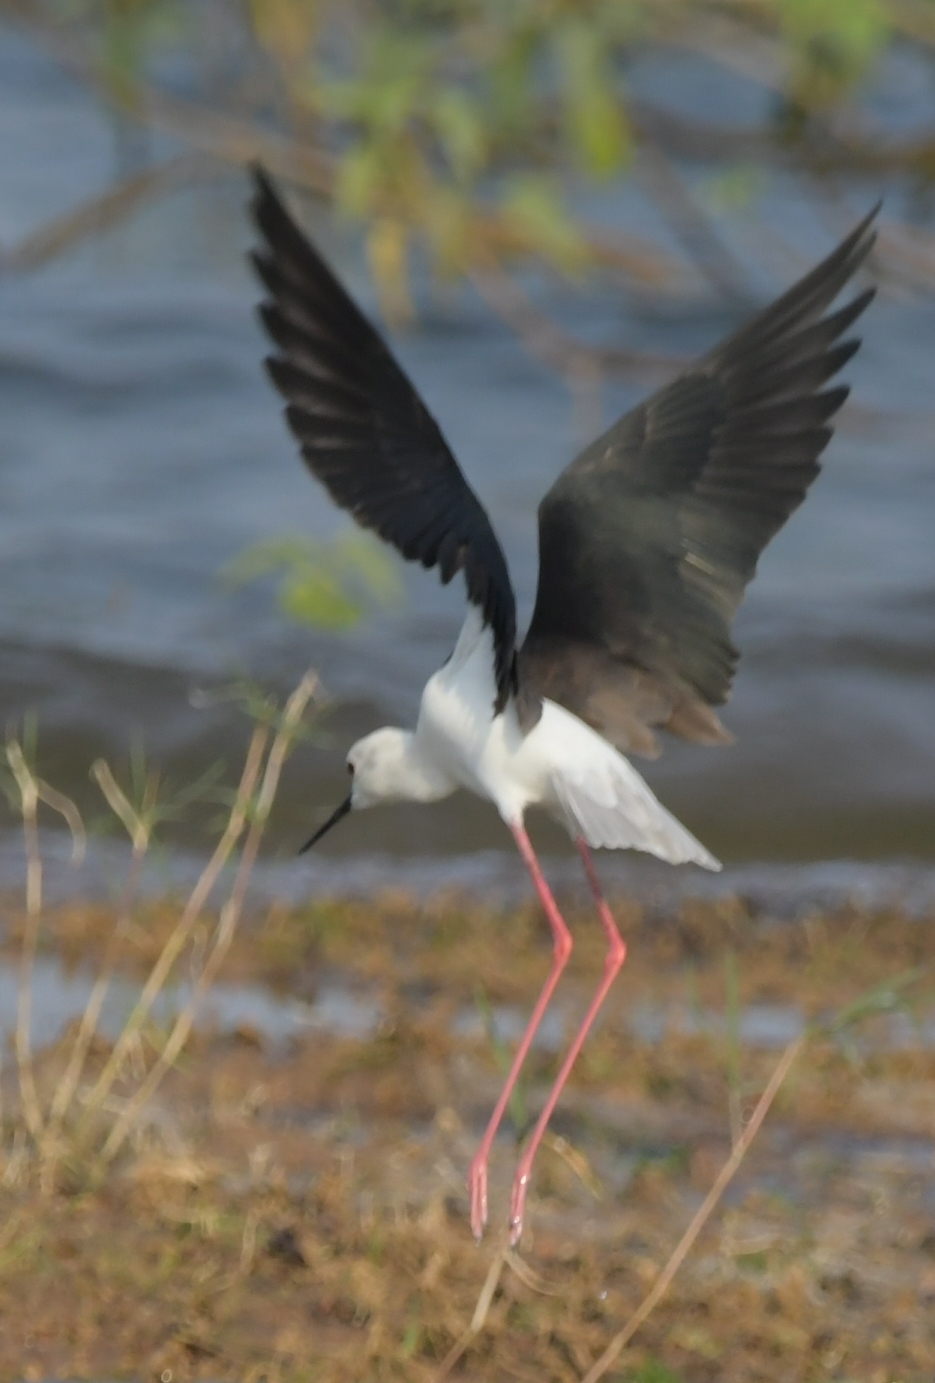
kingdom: Animalia
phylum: Chordata
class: Aves
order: Charadriiformes
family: Recurvirostridae
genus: Himantopus
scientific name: Himantopus himantopus
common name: Black-winged stilt
